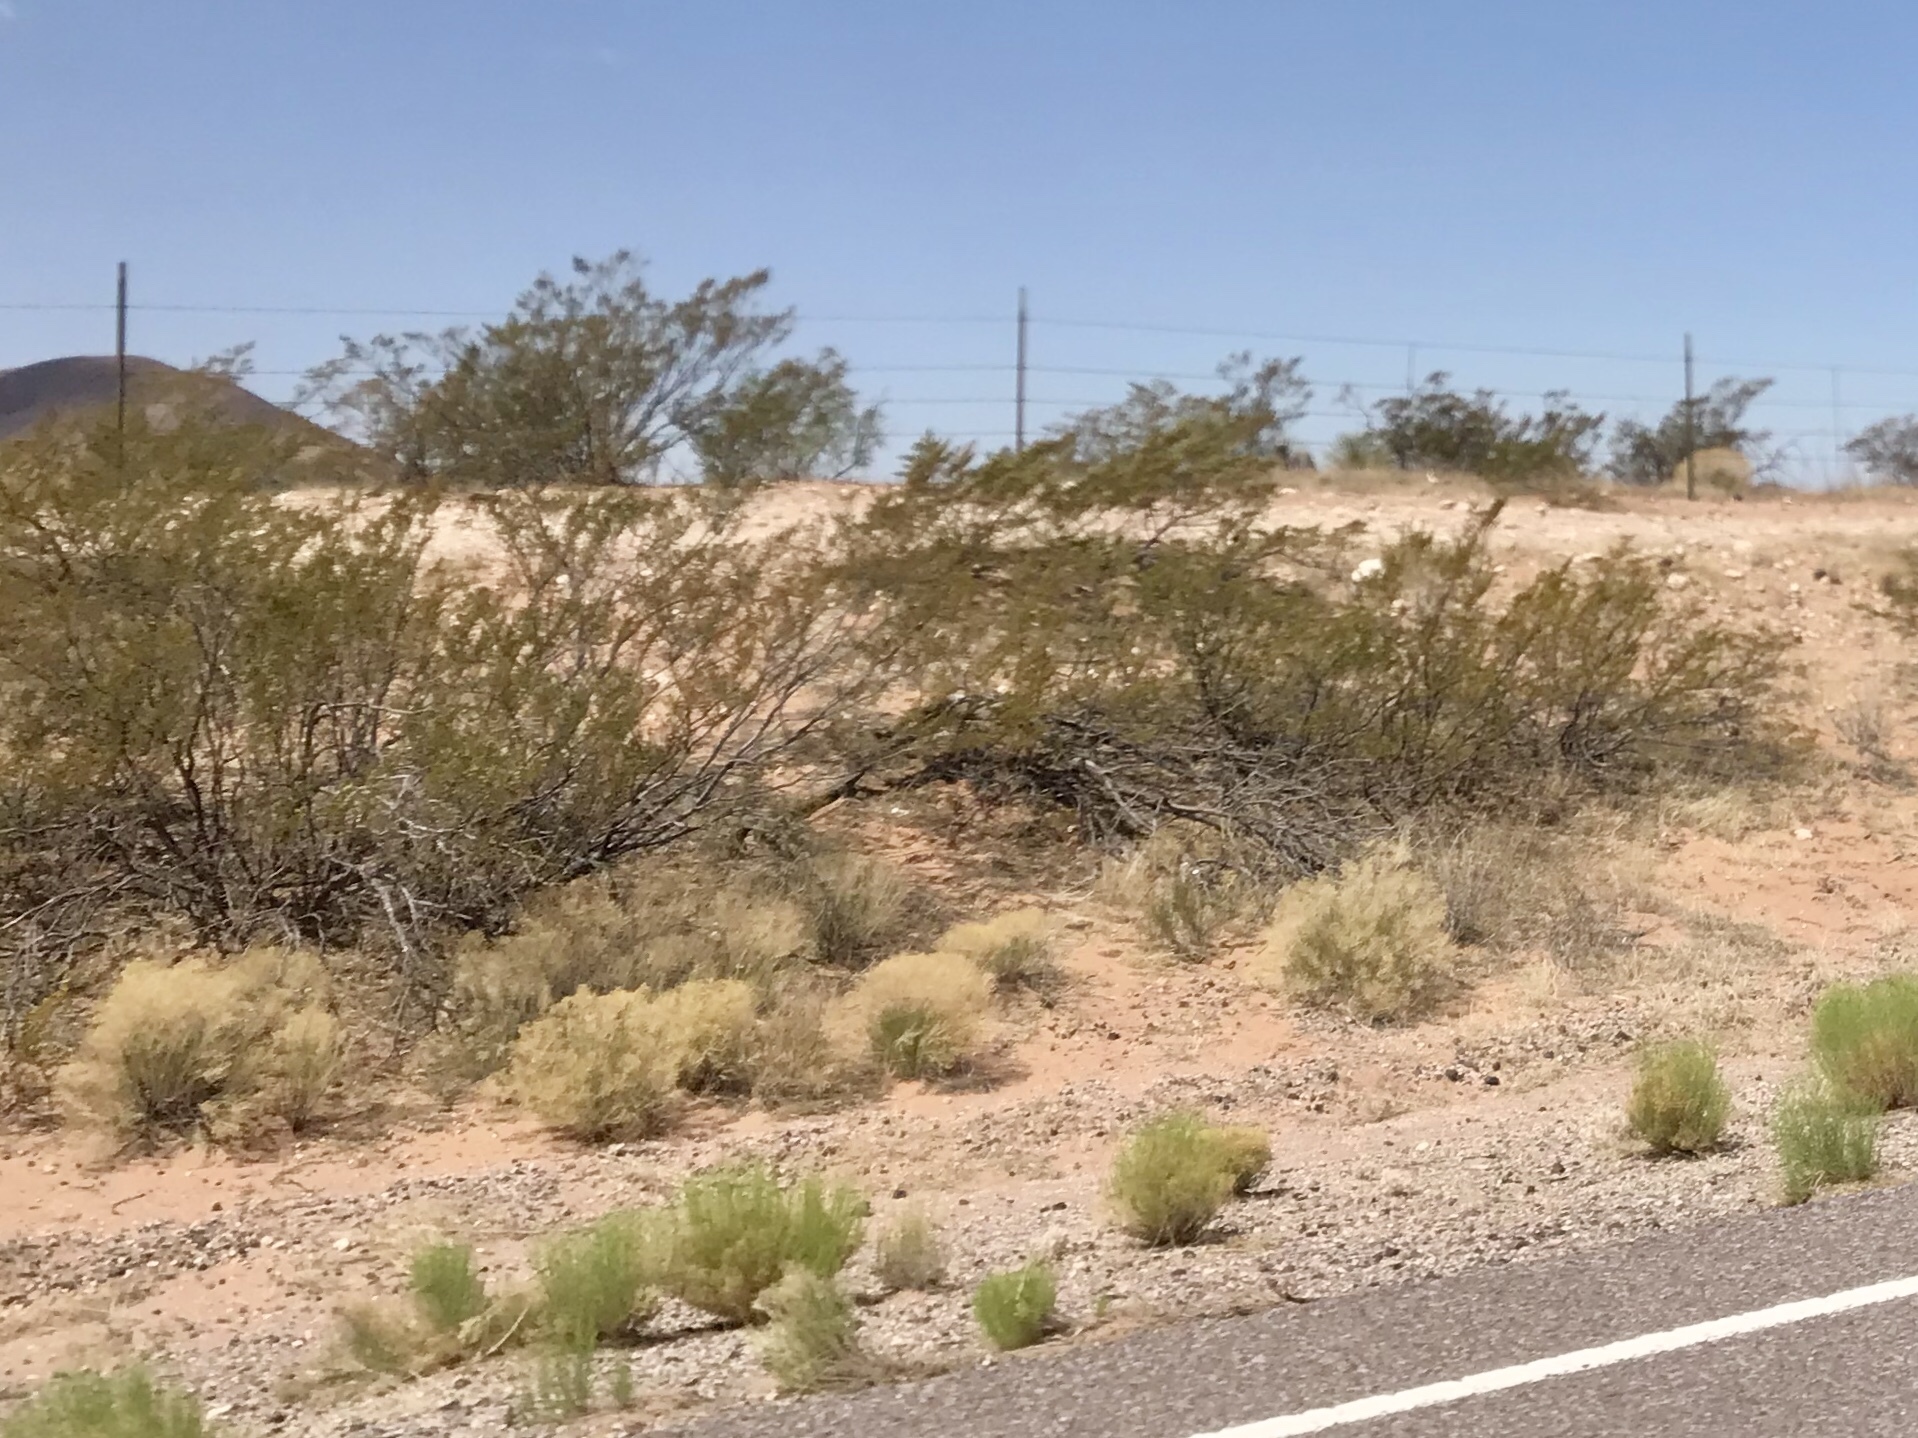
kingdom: Plantae
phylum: Tracheophyta
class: Magnoliopsida
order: Zygophyllales
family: Zygophyllaceae
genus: Larrea
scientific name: Larrea tridentata
